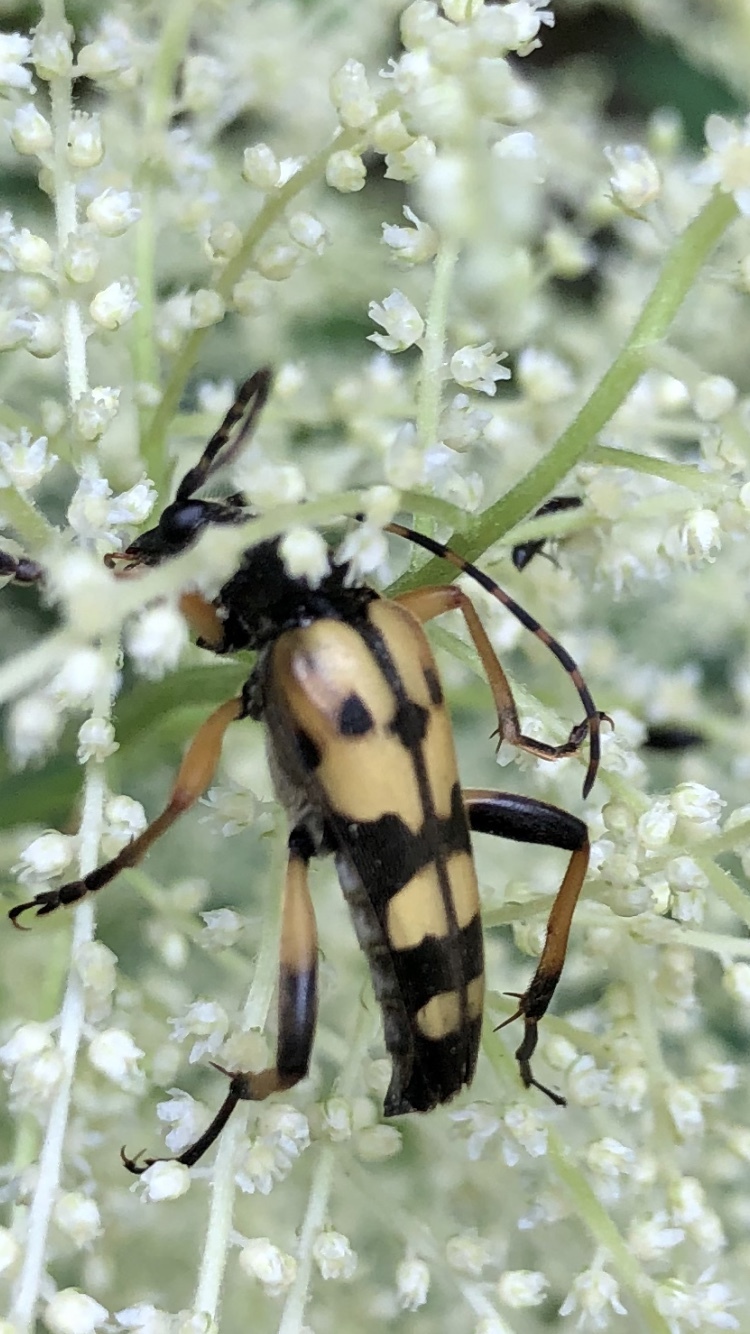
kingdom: Animalia
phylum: Arthropoda
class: Insecta
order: Coleoptera
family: Cerambycidae
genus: Rutpela
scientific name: Rutpela maculata
